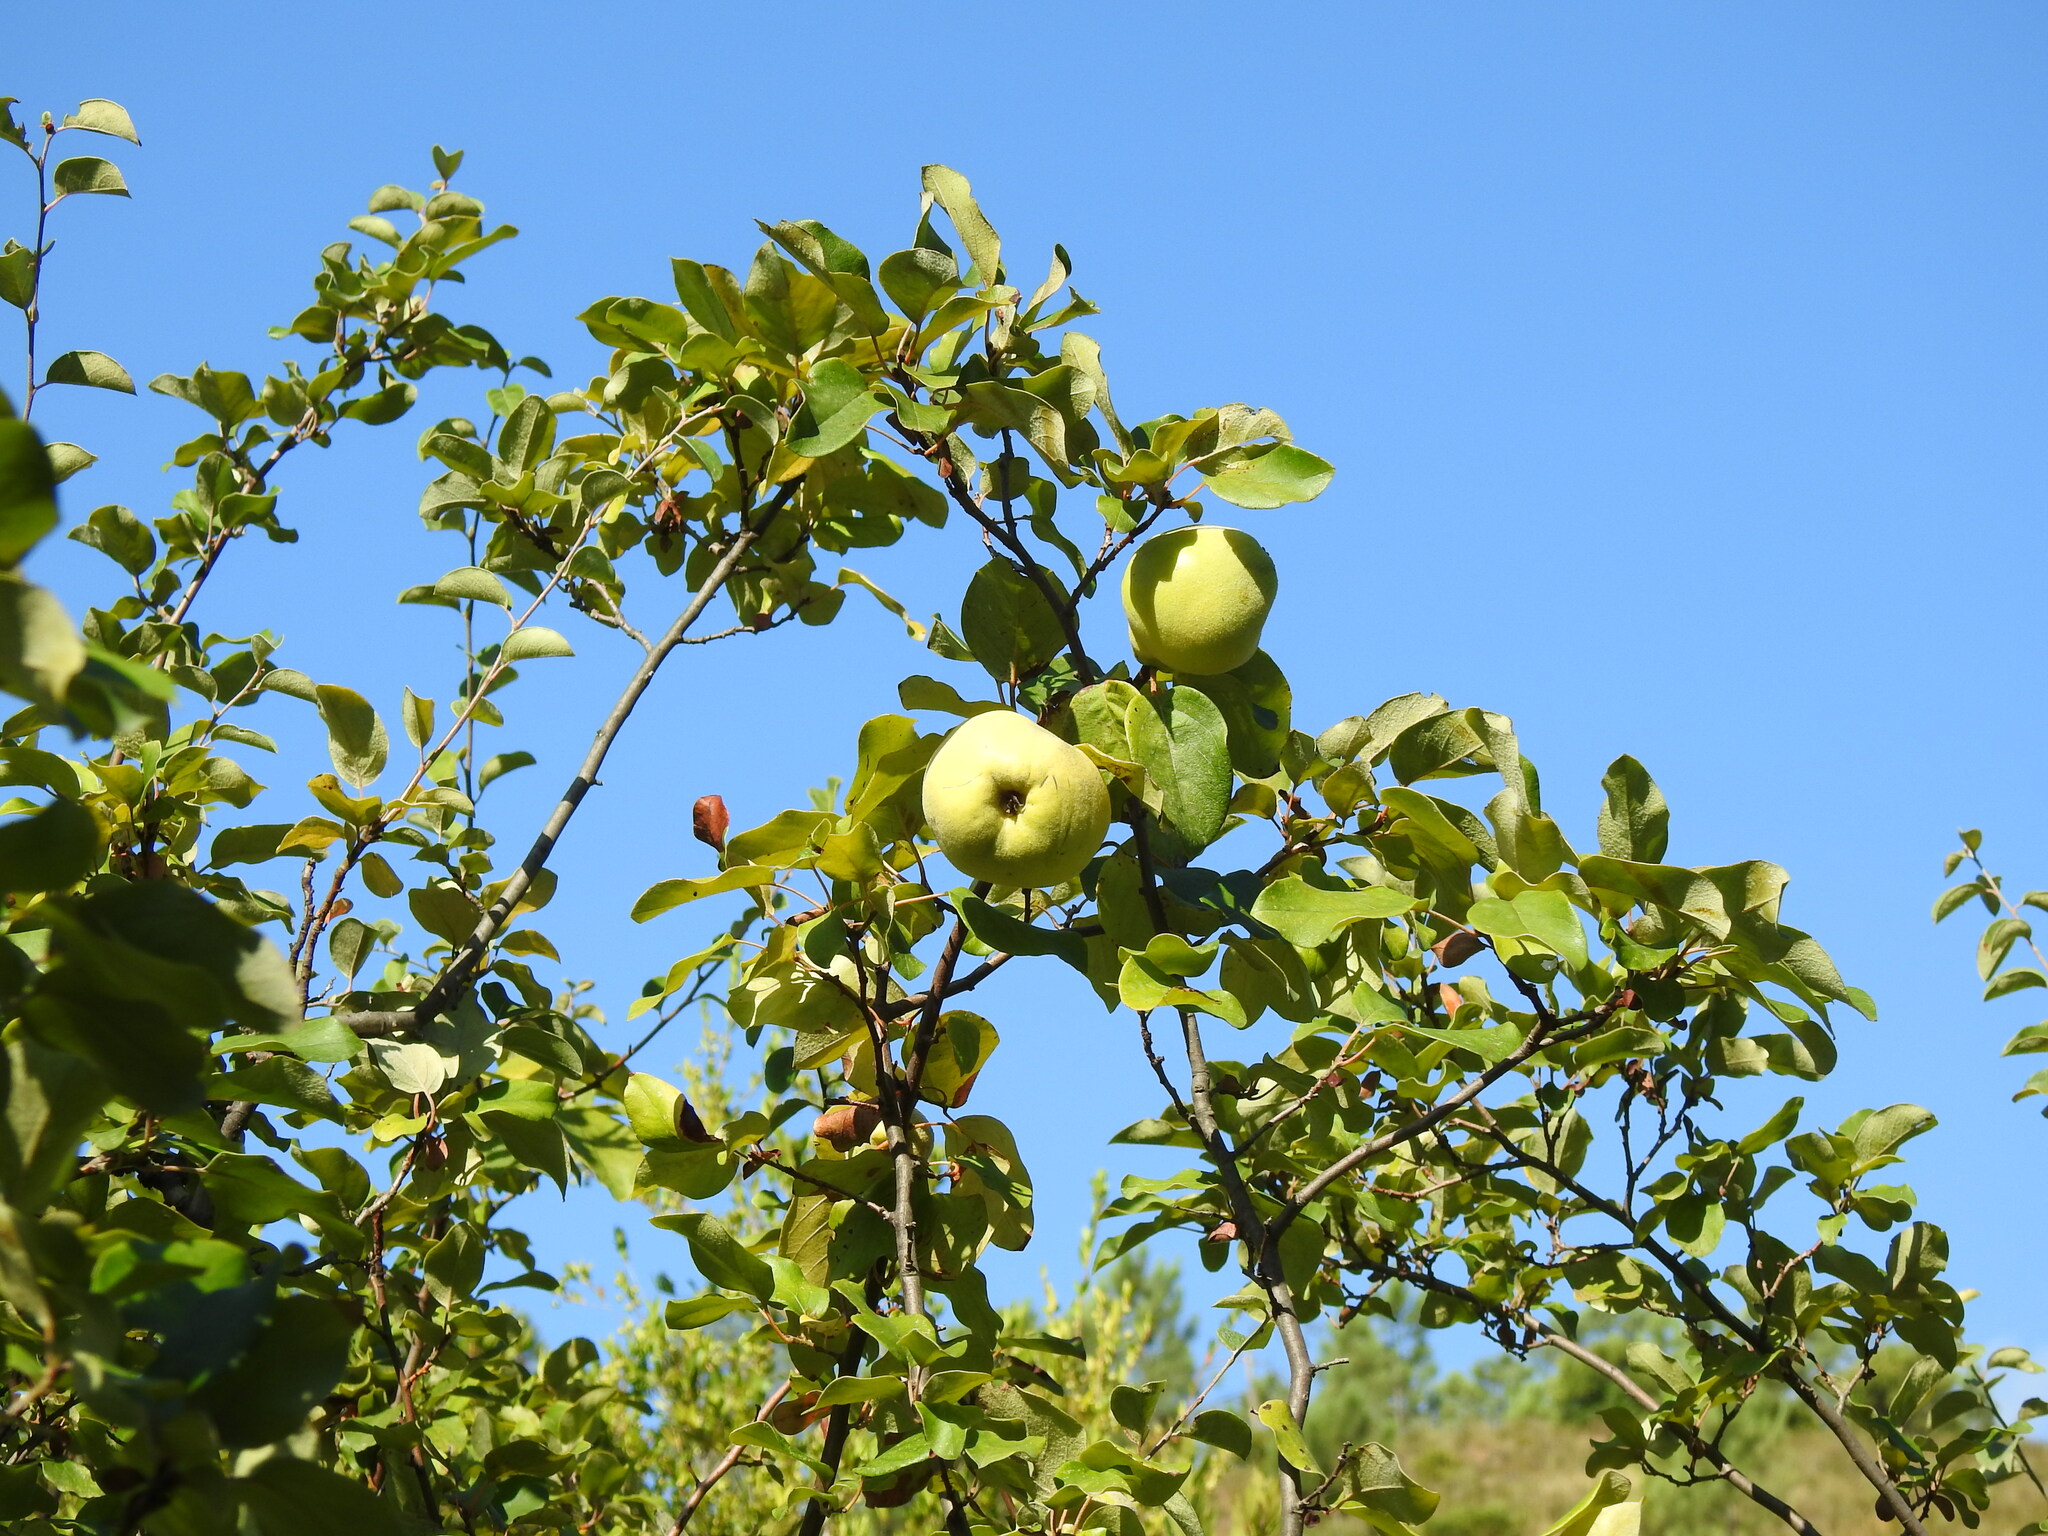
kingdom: Plantae
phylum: Tracheophyta
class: Magnoliopsida
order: Rosales
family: Rosaceae
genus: Cydonia
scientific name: Cydonia oblonga
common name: Quince
